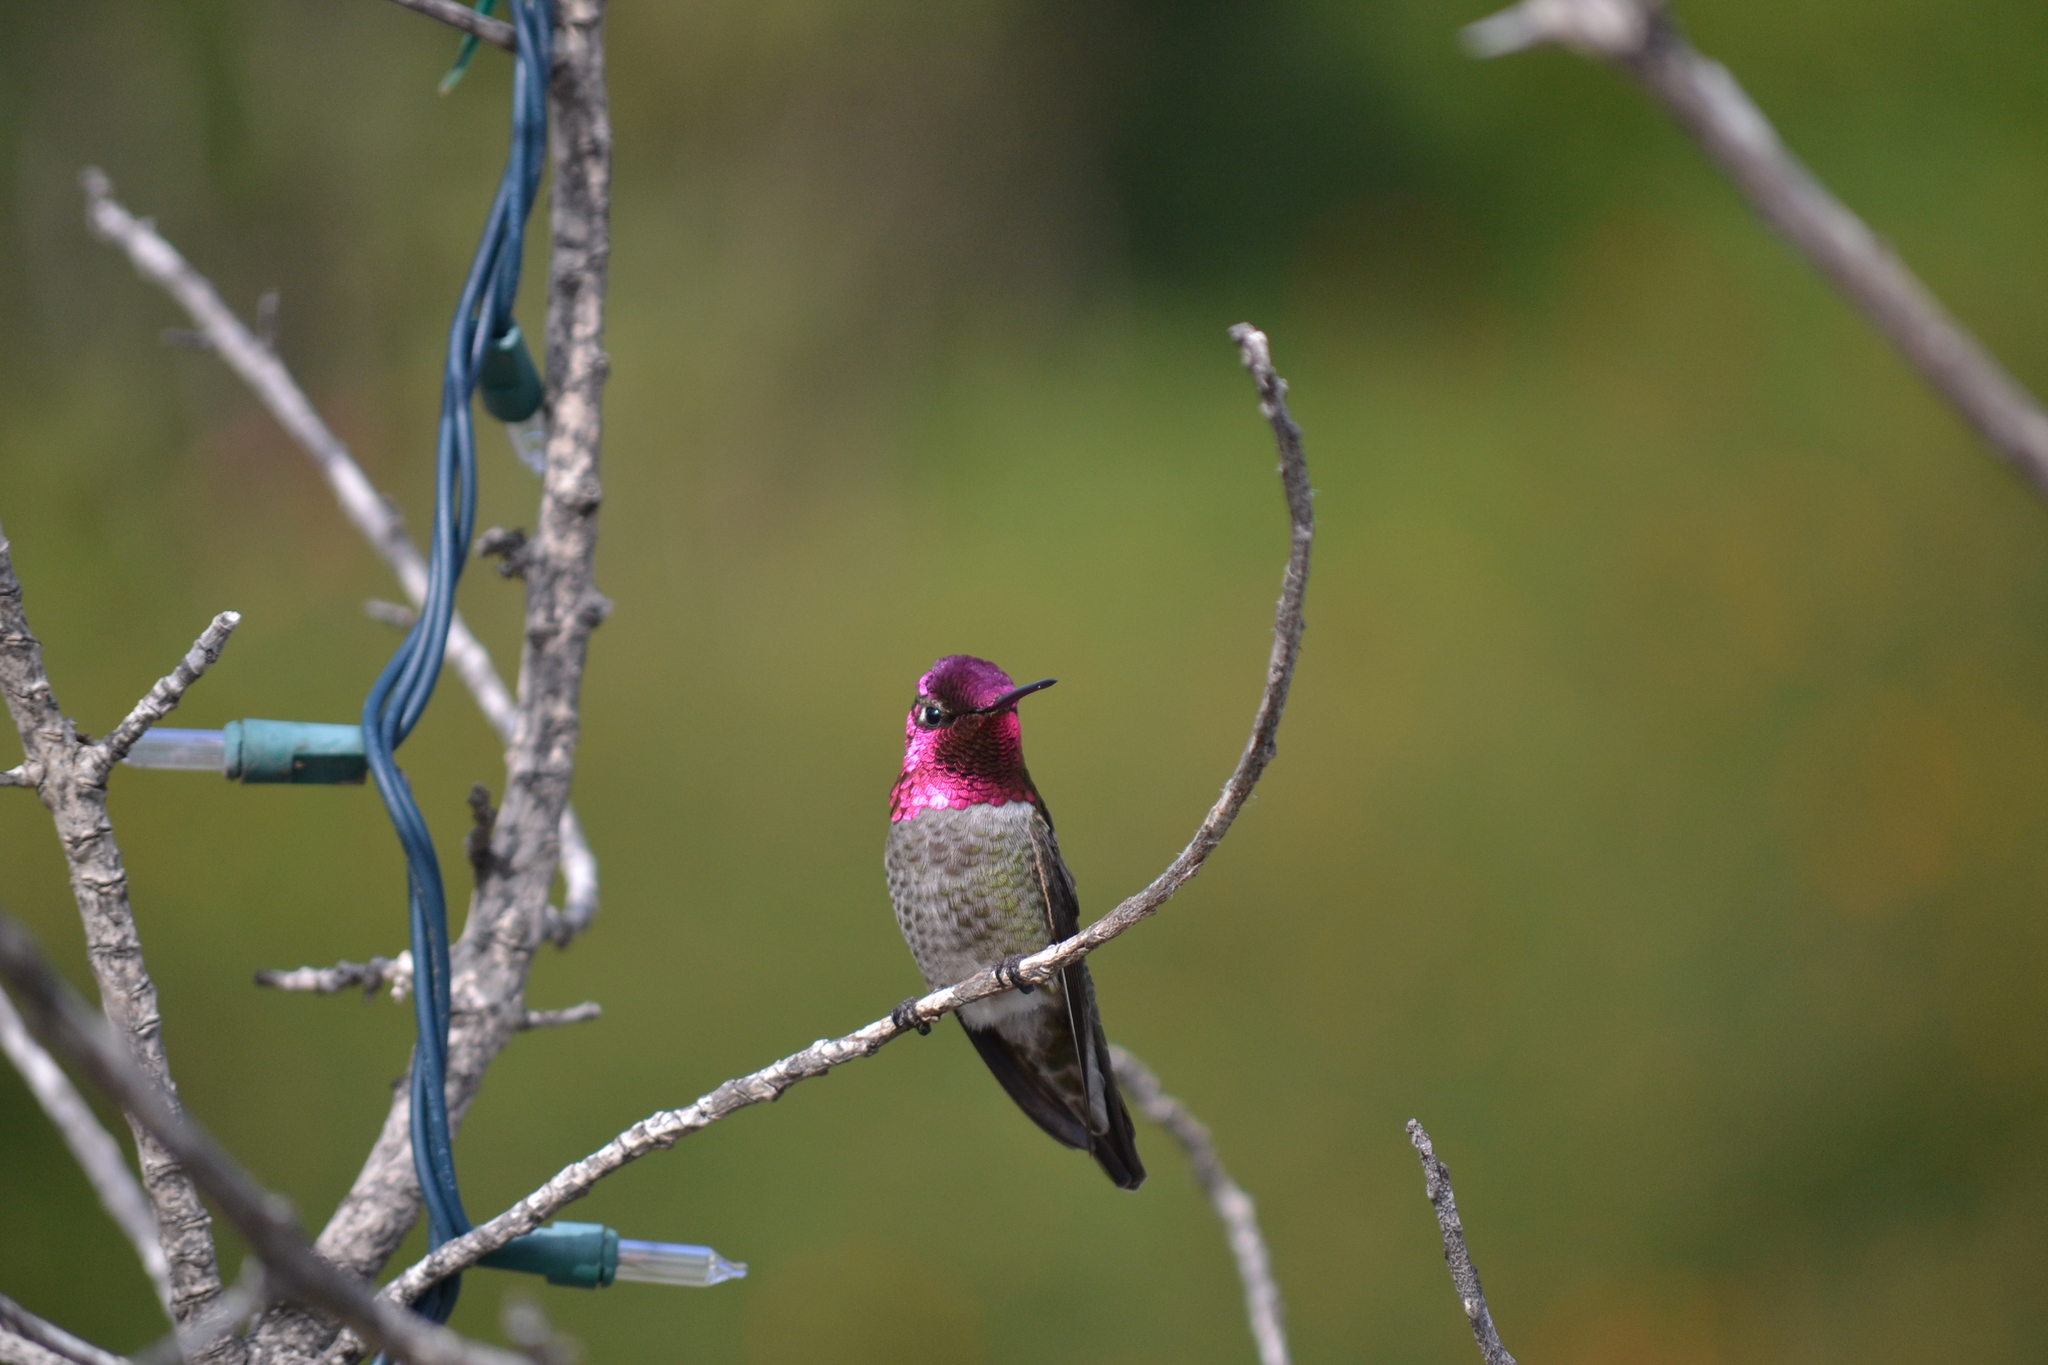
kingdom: Animalia
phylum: Chordata
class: Aves
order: Apodiformes
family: Trochilidae
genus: Calypte
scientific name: Calypte anna
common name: Anna's hummingbird
